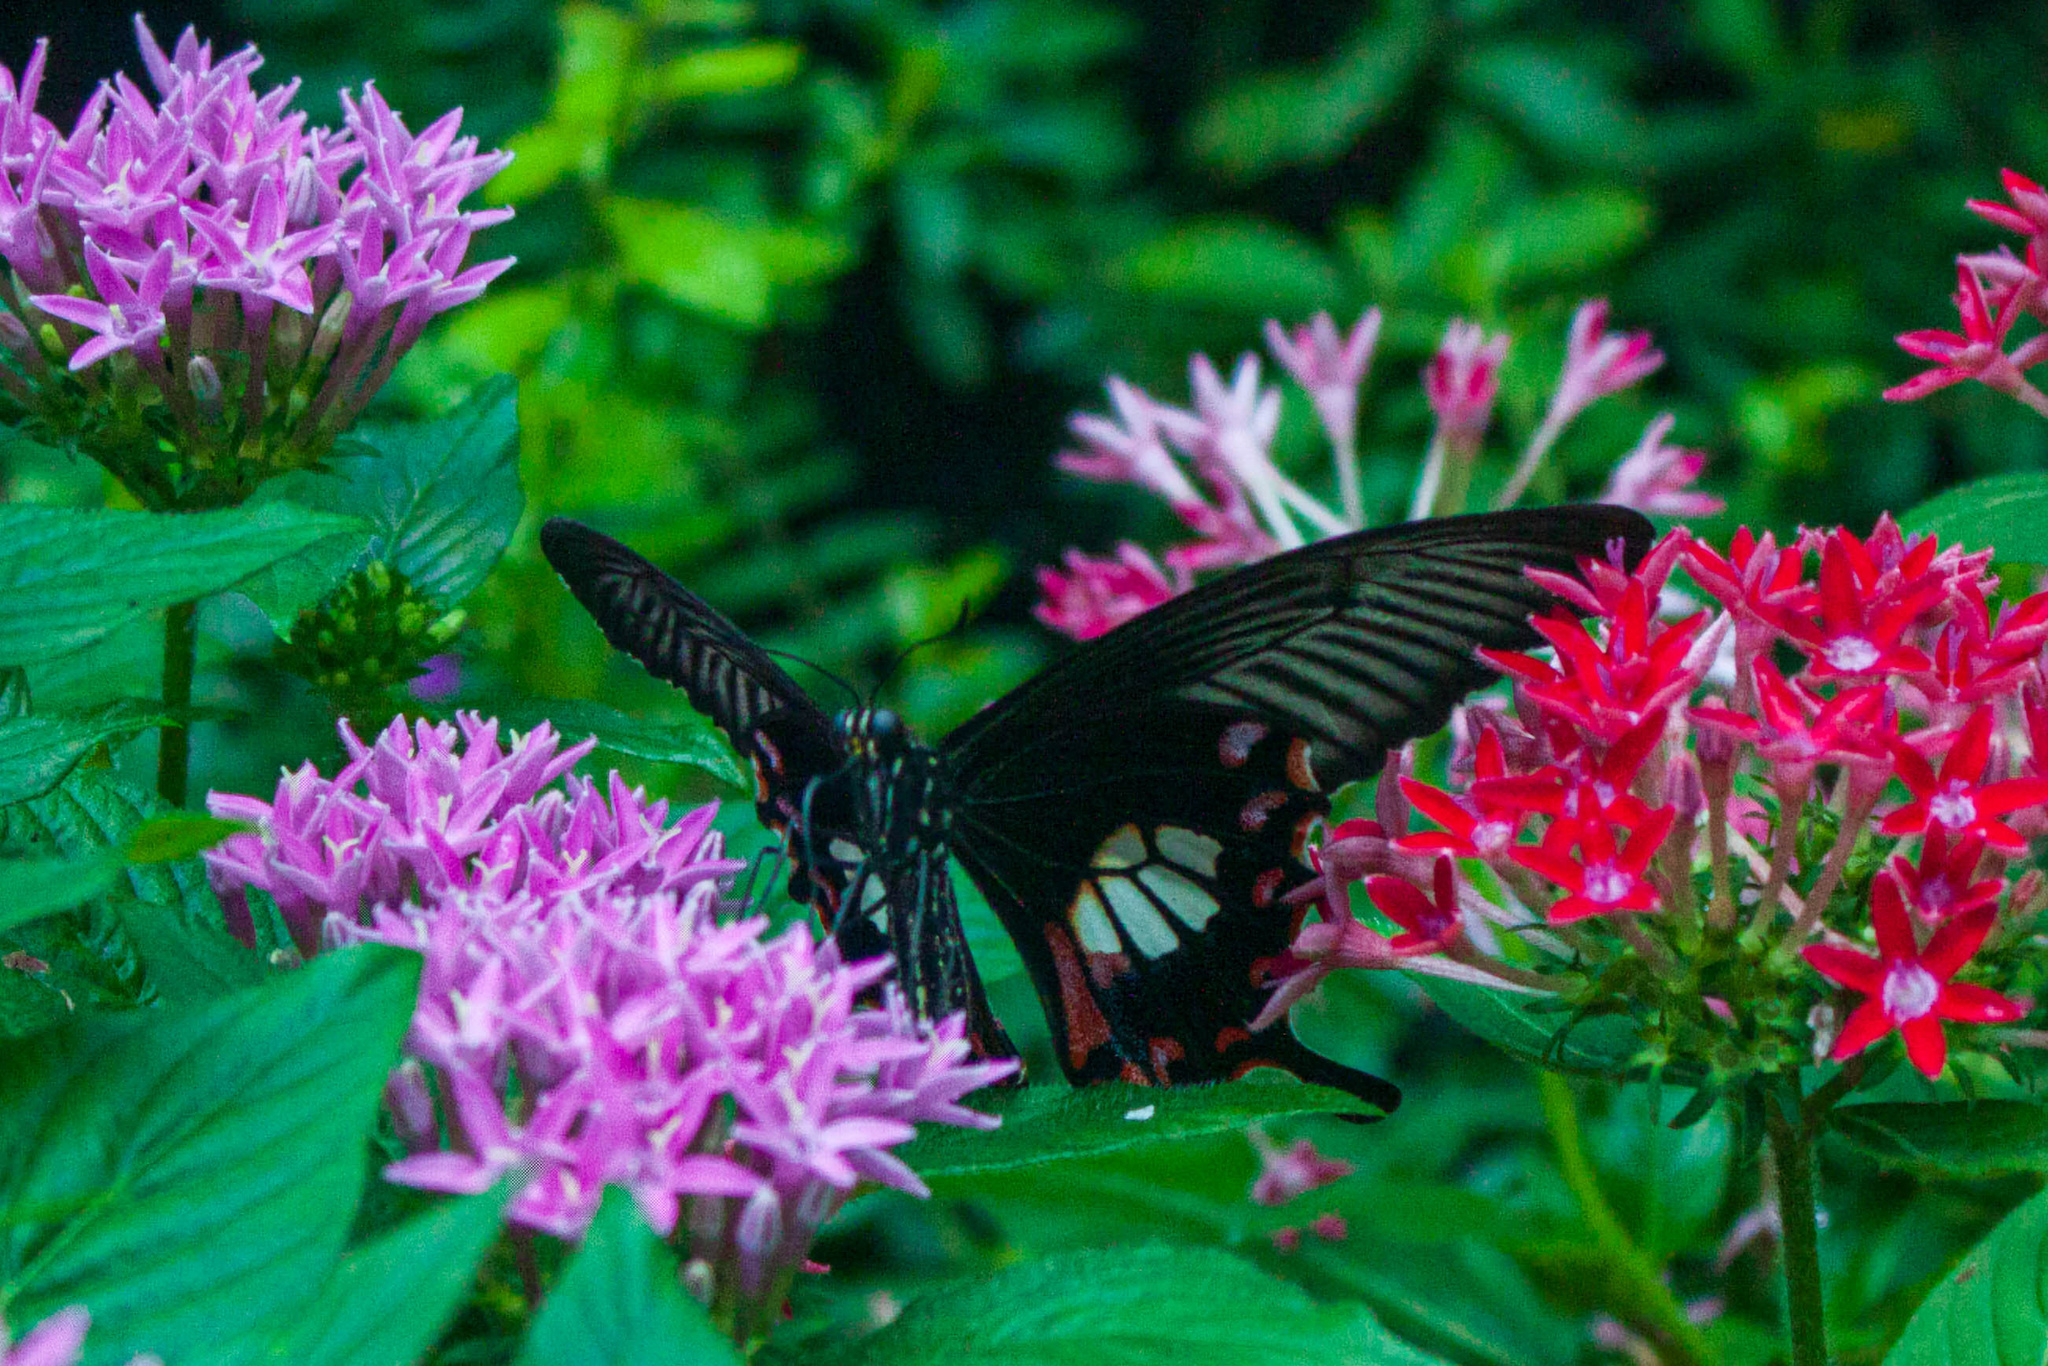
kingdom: Animalia
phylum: Arthropoda
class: Insecta
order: Lepidoptera
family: Papilionidae
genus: Papilio
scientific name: Papilio polytes
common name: Common mormon
